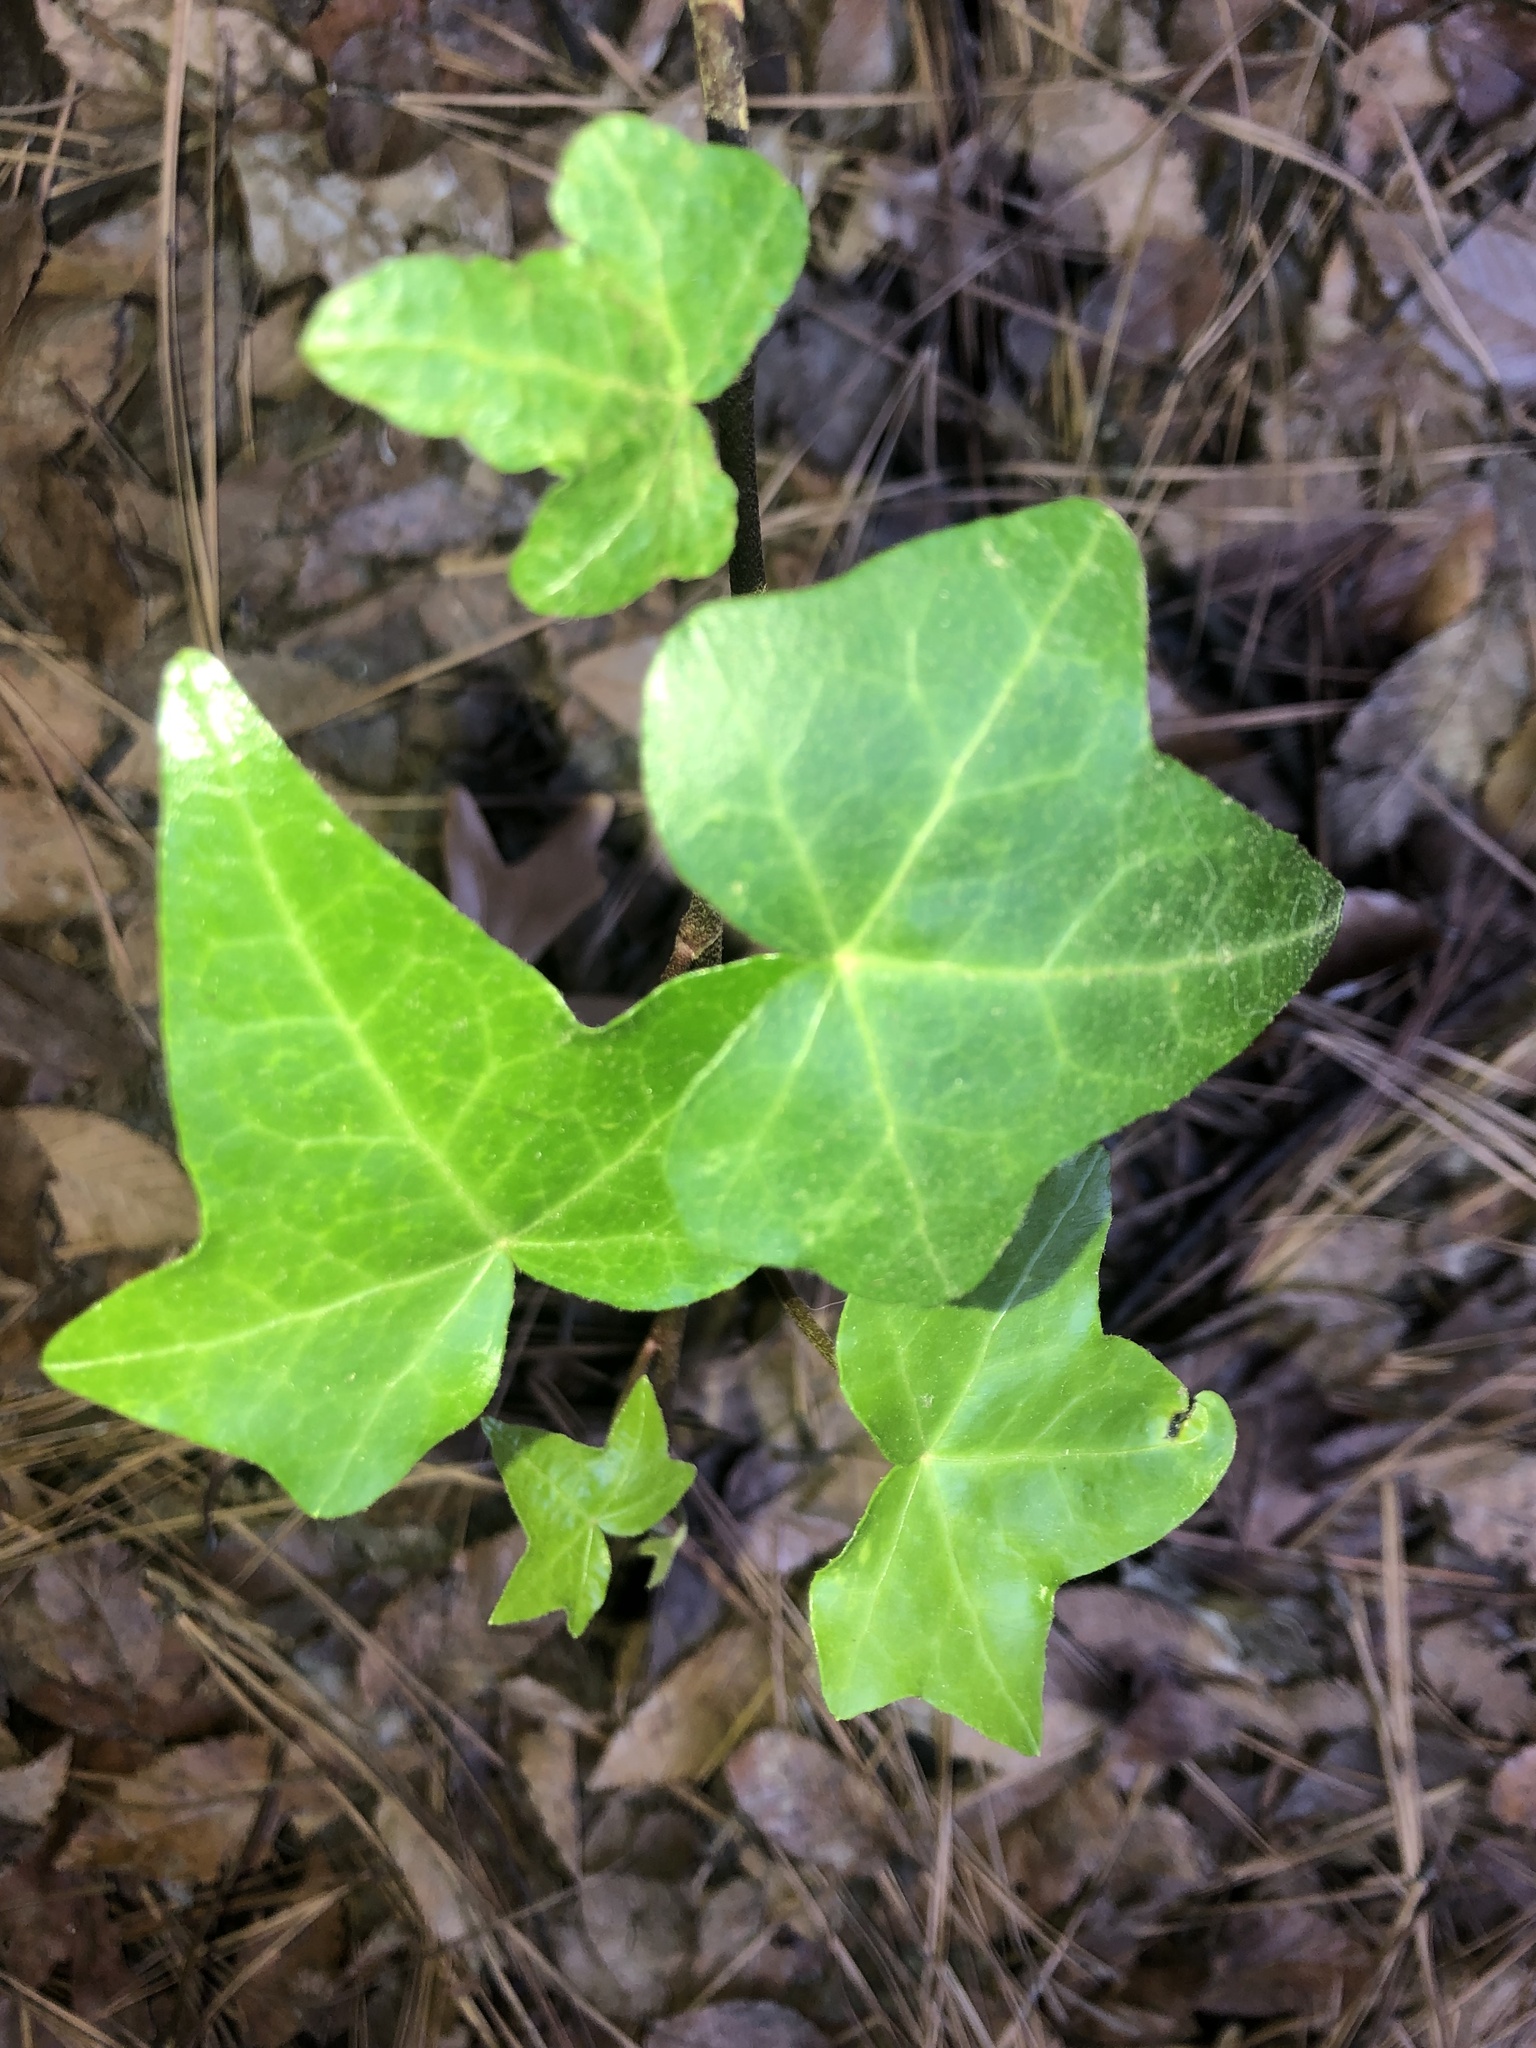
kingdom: Plantae
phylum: Tracheophyta
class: Magnoliopsida
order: Apiales
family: Araliaceae
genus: Hedera
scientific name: Hedera helix
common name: Ivy
